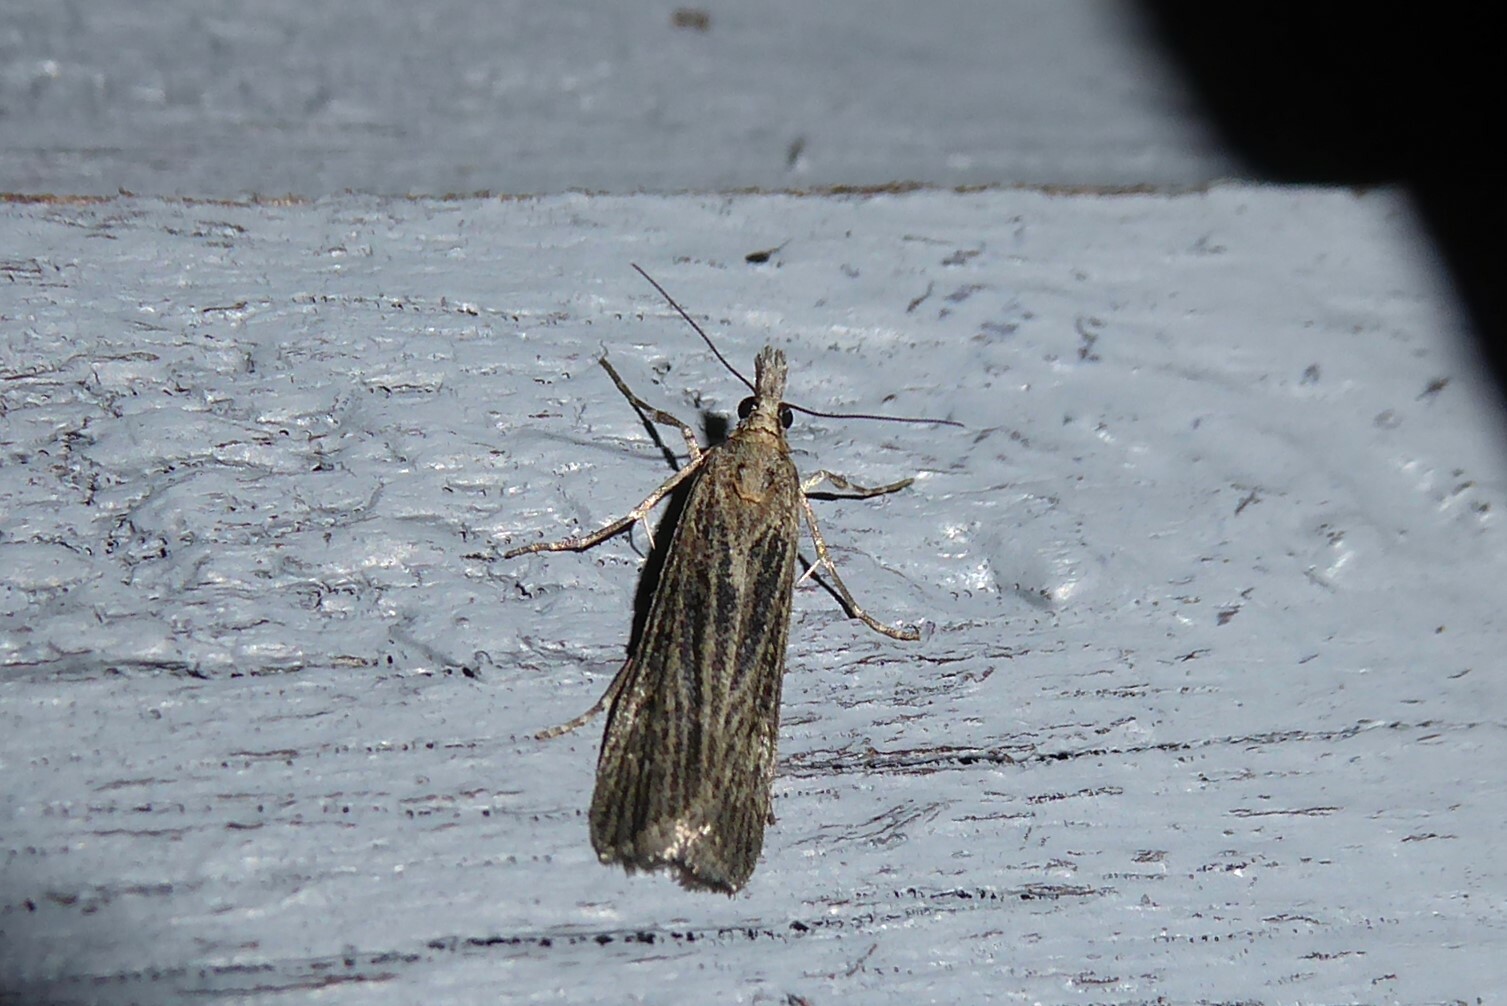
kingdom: Animalia
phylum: Arthropoda
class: Insecta
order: Lepidoptera
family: Crambidae
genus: Eudonia
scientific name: Eudonia atmogramma
